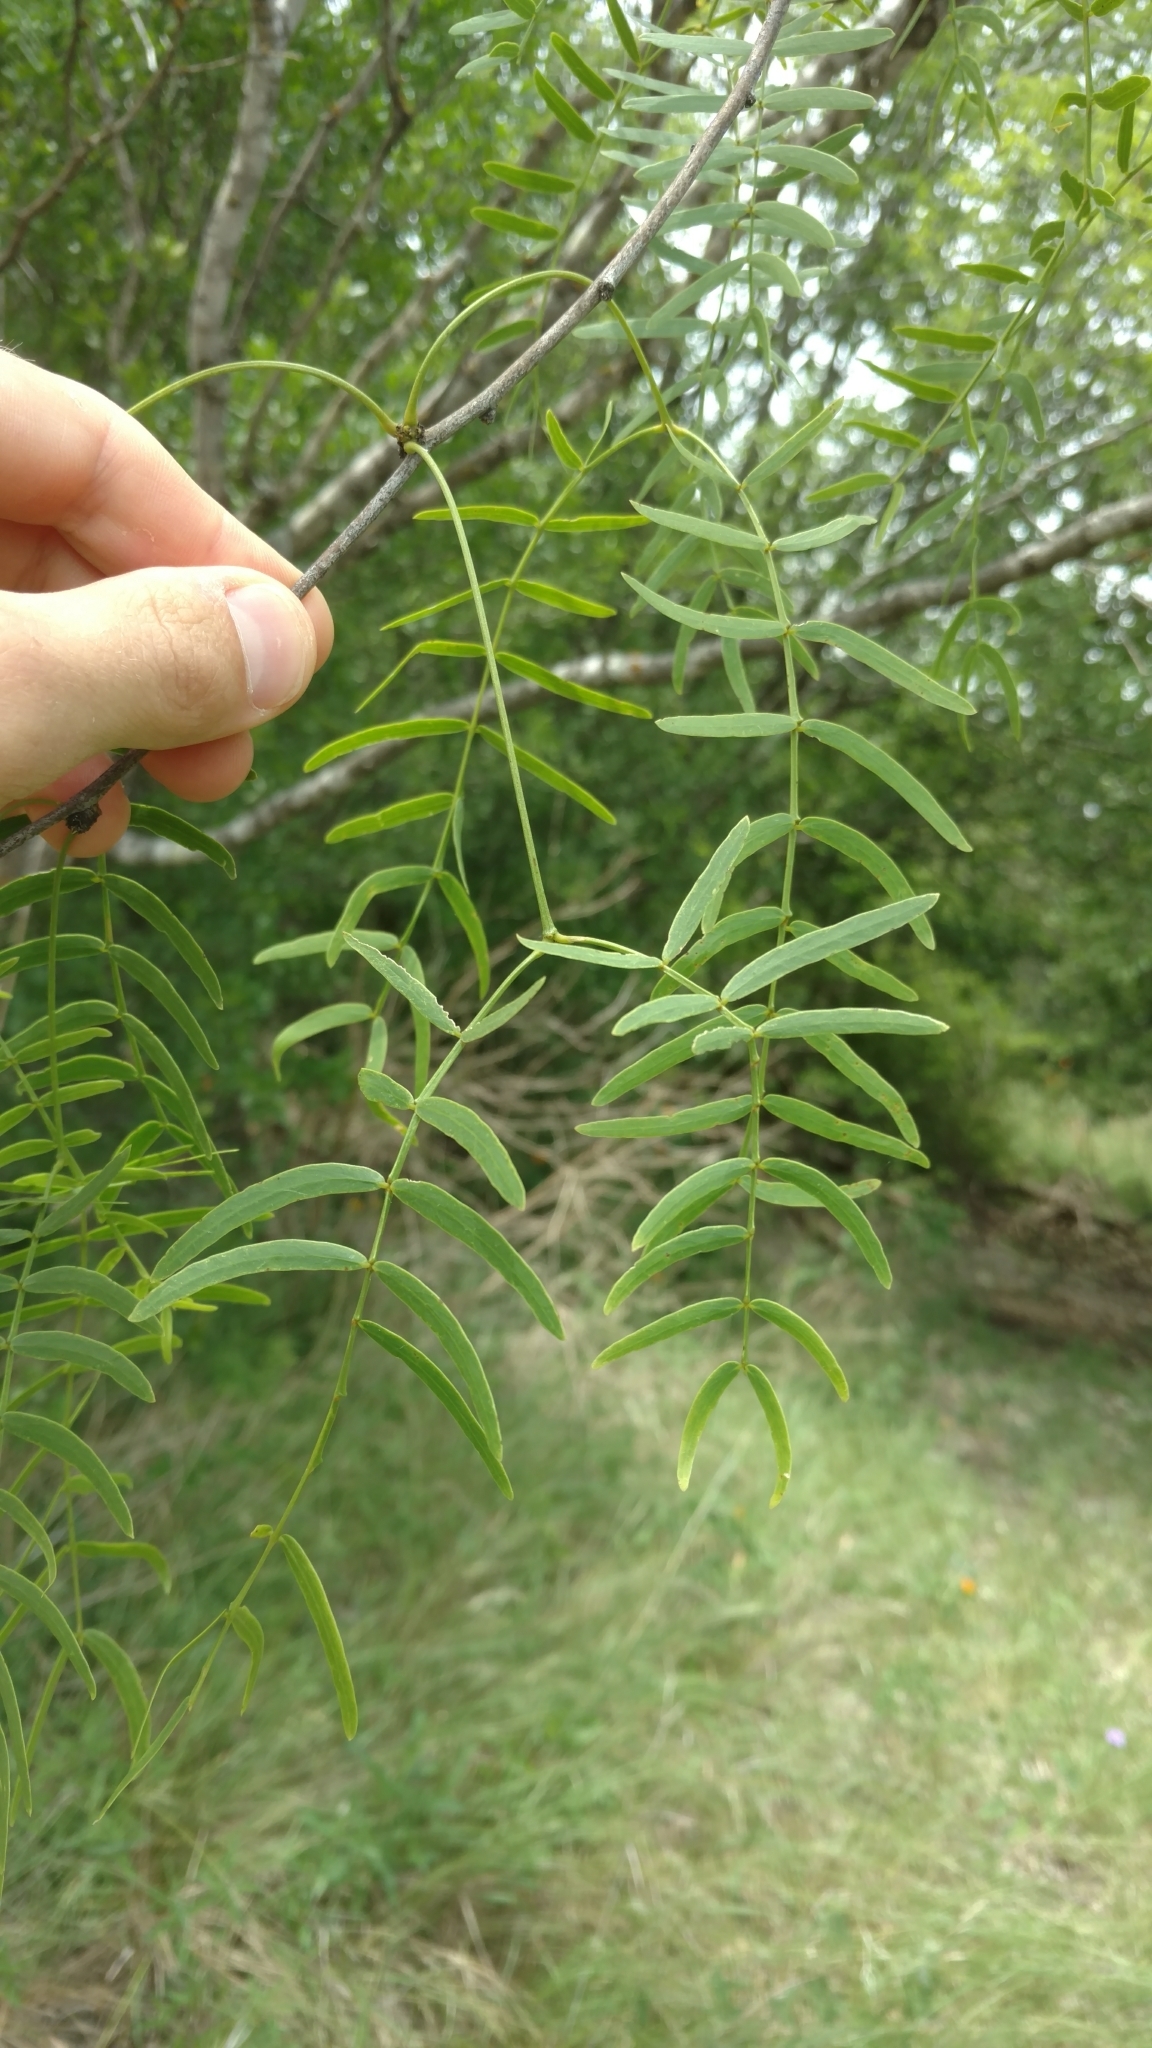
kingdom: Plantae
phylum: Tracheophyta
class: Magnoliopsida
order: Fabales
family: Fabaceae
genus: Prosopis
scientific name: Prosopis glandulosa
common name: Honey mesquite
